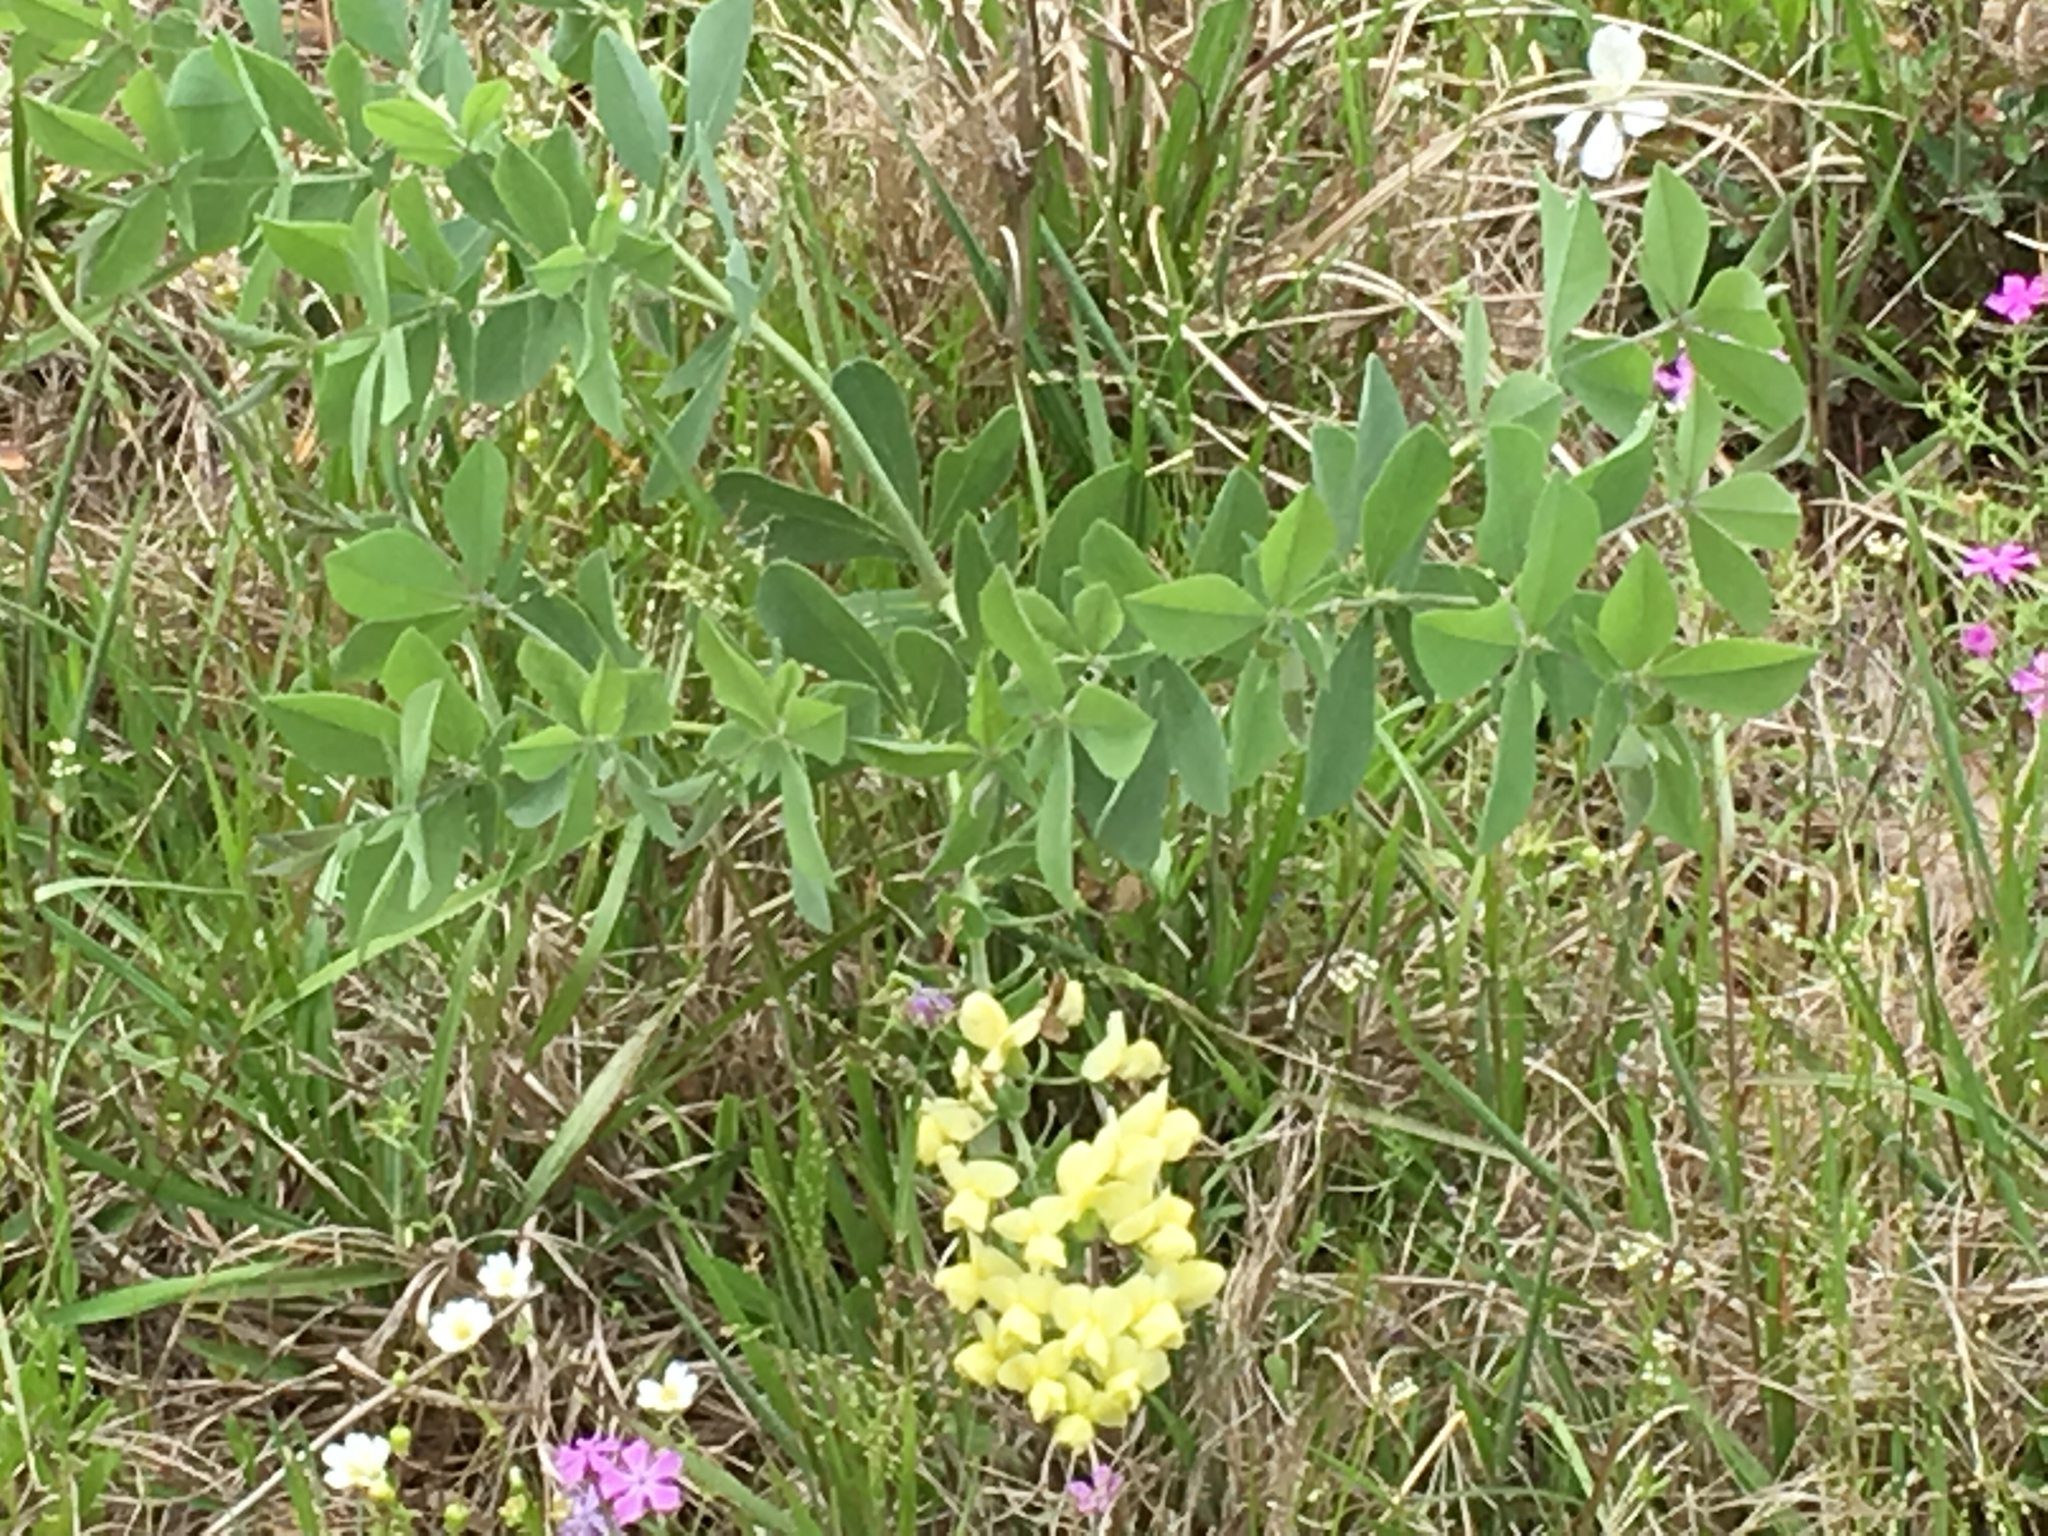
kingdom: Plantae
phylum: Tracheophyta
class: Magnoliopsida
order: Fabales
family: Fabaceae
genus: Baptisia
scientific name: Baptisia bracteata
